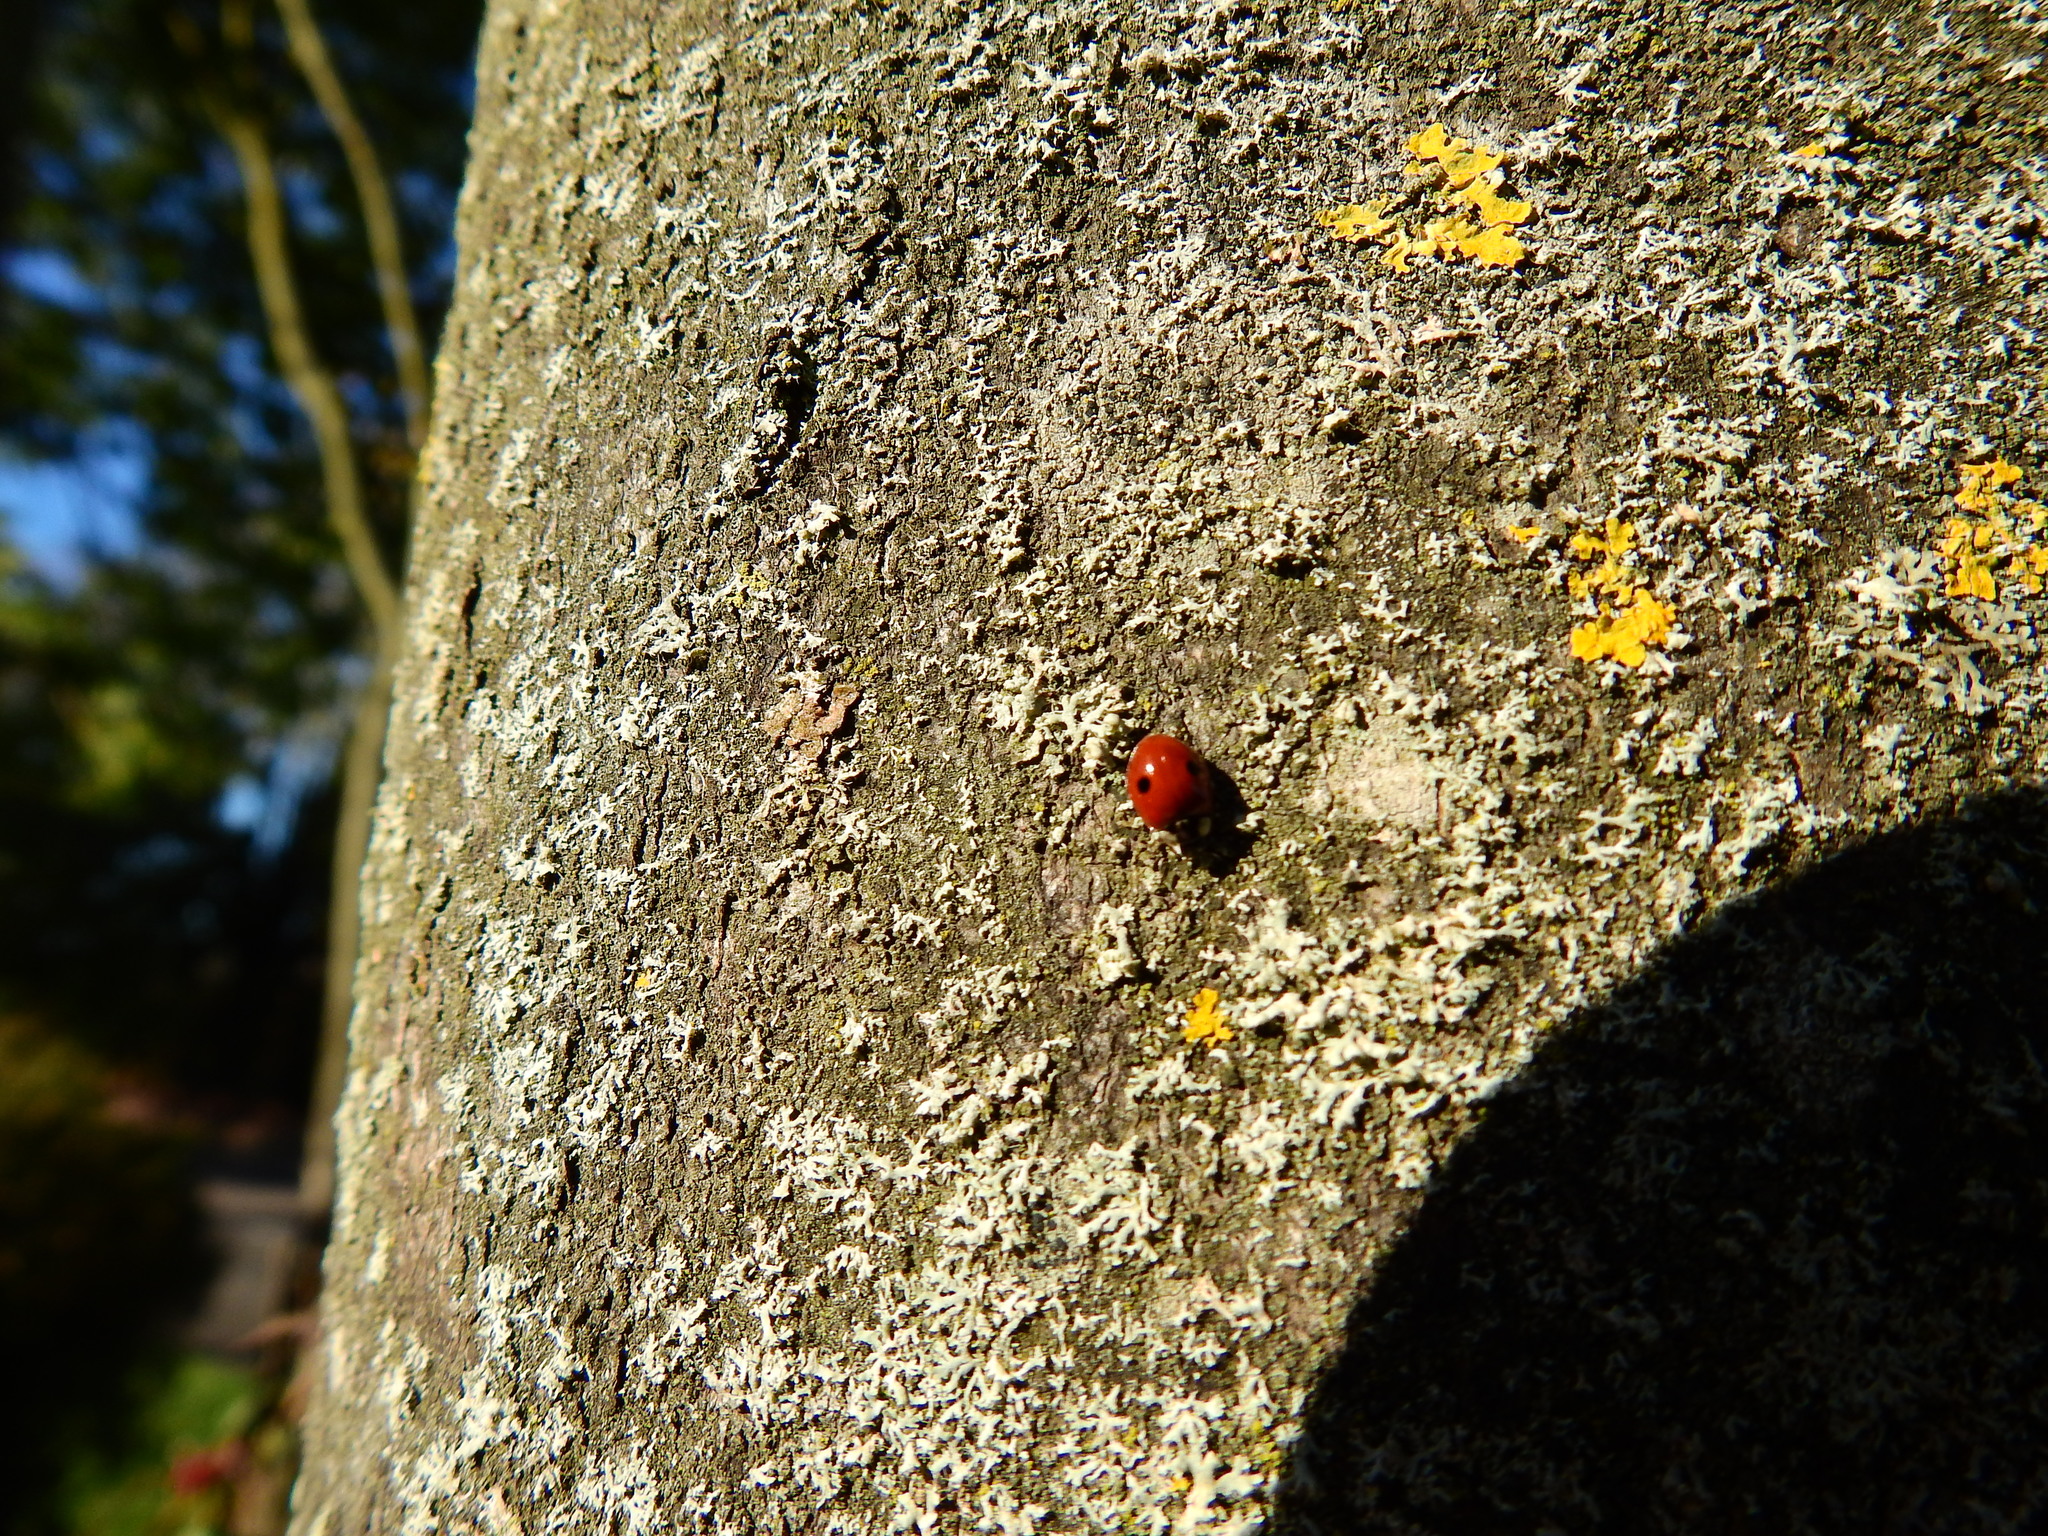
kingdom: Animalia
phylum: Arthropoda
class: Insecta
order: Coleoptera
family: Coccinellidae
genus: Adalia
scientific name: Adalia bipunctata
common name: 2-spot ladybird
